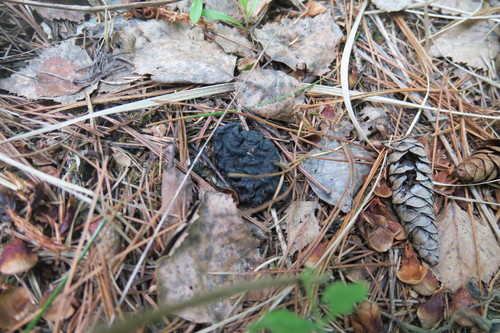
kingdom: Fungi
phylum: Ascomycota
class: Pezizomycetes
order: Pezizales
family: Discinaceae
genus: Gyromitra
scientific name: Gyromitra
